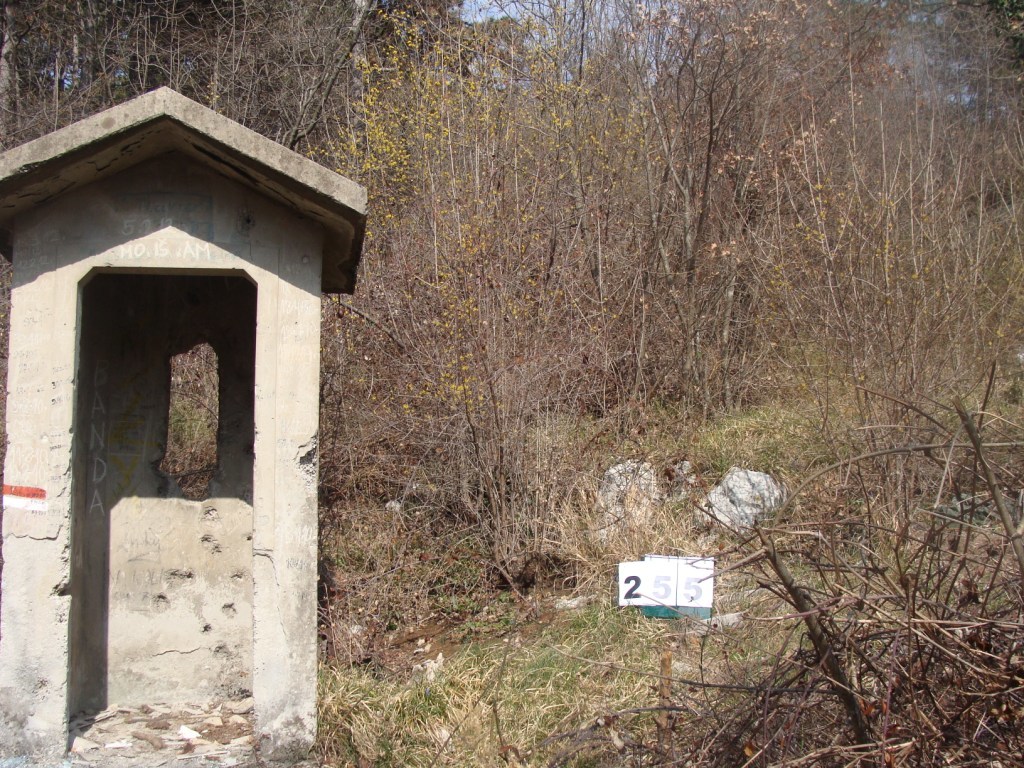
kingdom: Plantae
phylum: Tracheophyta
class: Magnoliopsida
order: Cornales
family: Cornaceae
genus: Cornus
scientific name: Cornus mas
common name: Cornelian-cherry
